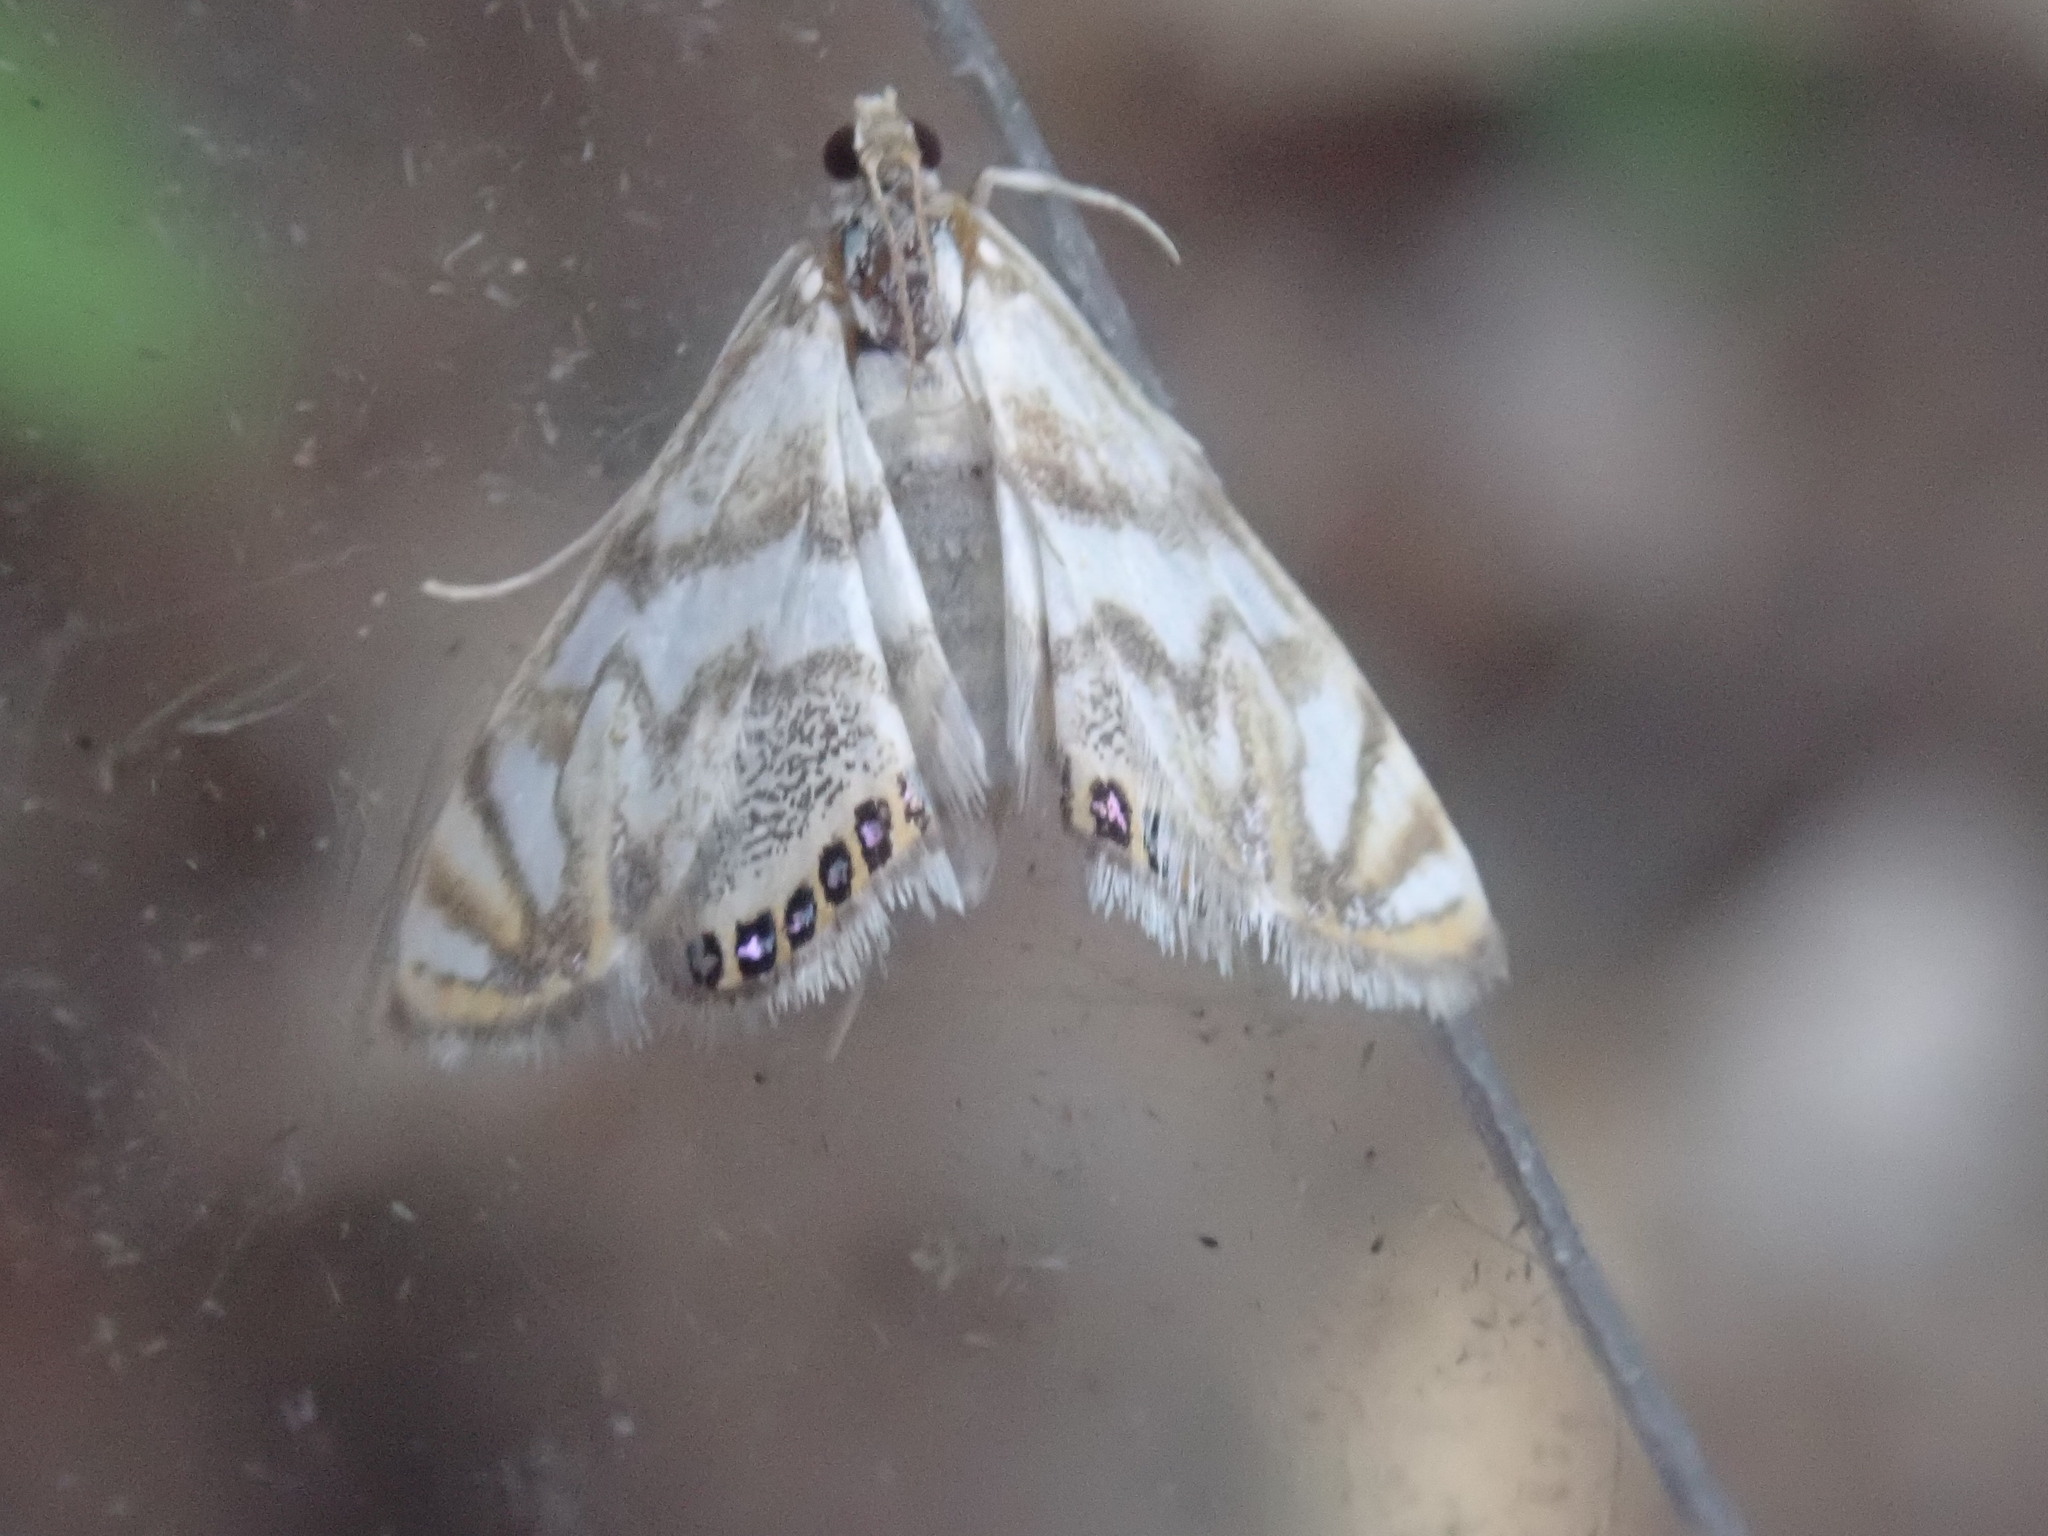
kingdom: Animalia
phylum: Arthropoda
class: Insecta
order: Lepidoptera
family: Crambidae
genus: Neocataclysta
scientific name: Neocataclysta magnificalis
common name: Scrollwork pyralid moth
